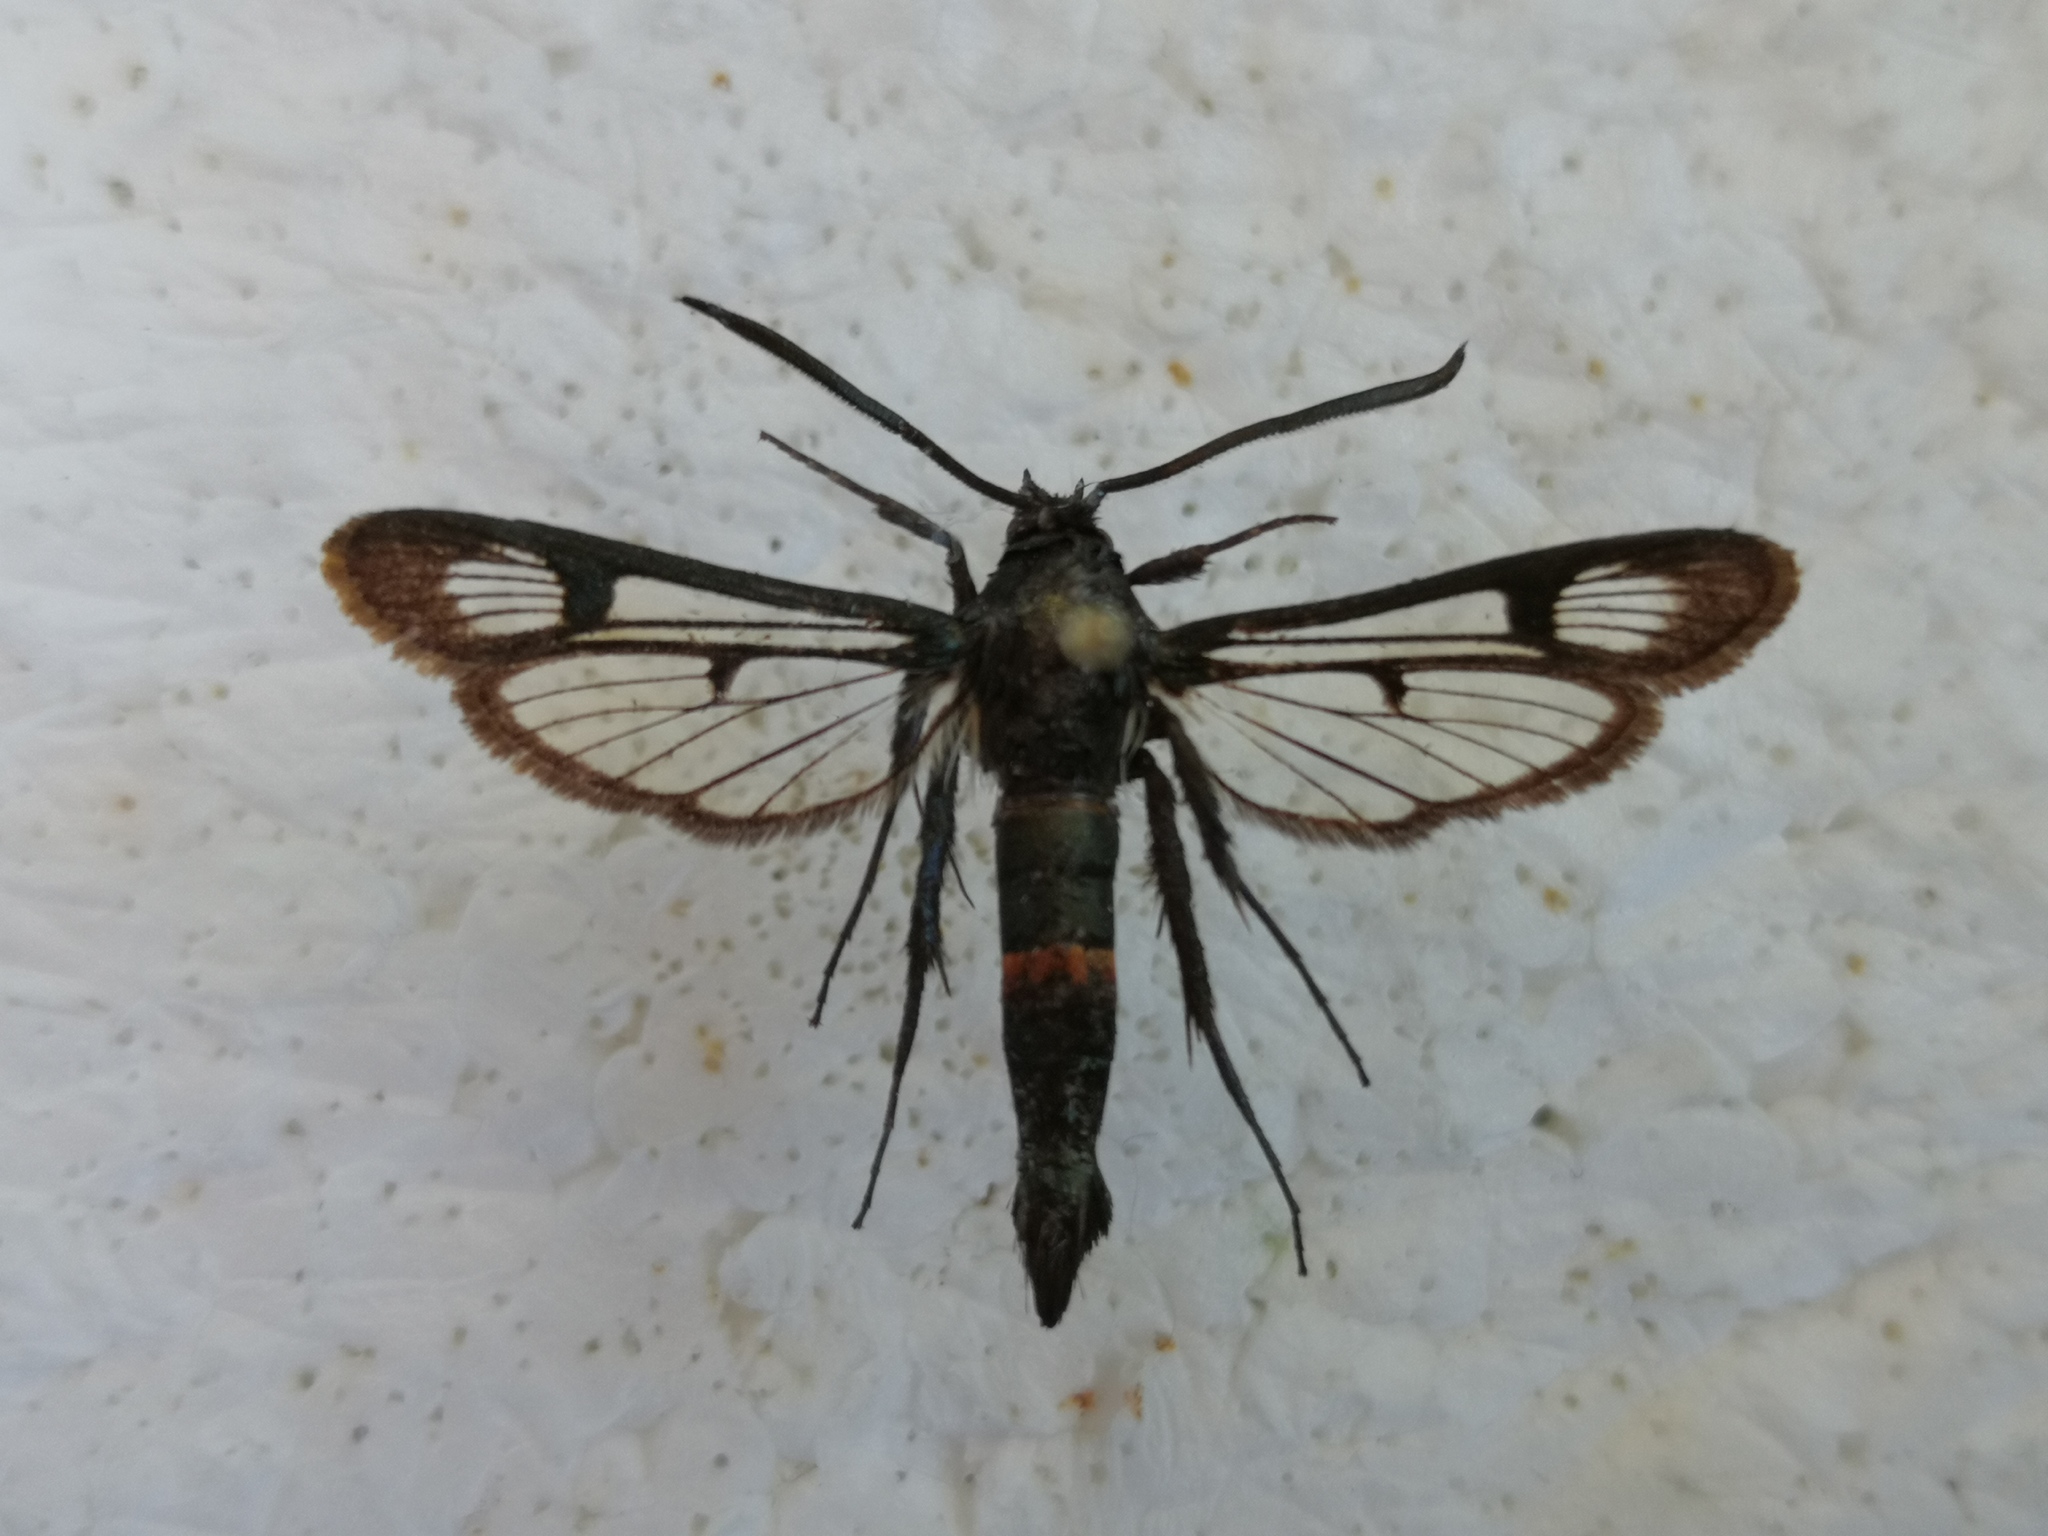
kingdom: Animalia
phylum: Arthropoda
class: Insecta
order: Lepidoptera
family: Sesiidae
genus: Synanthedon
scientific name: Synanthedon stomoxiformis
